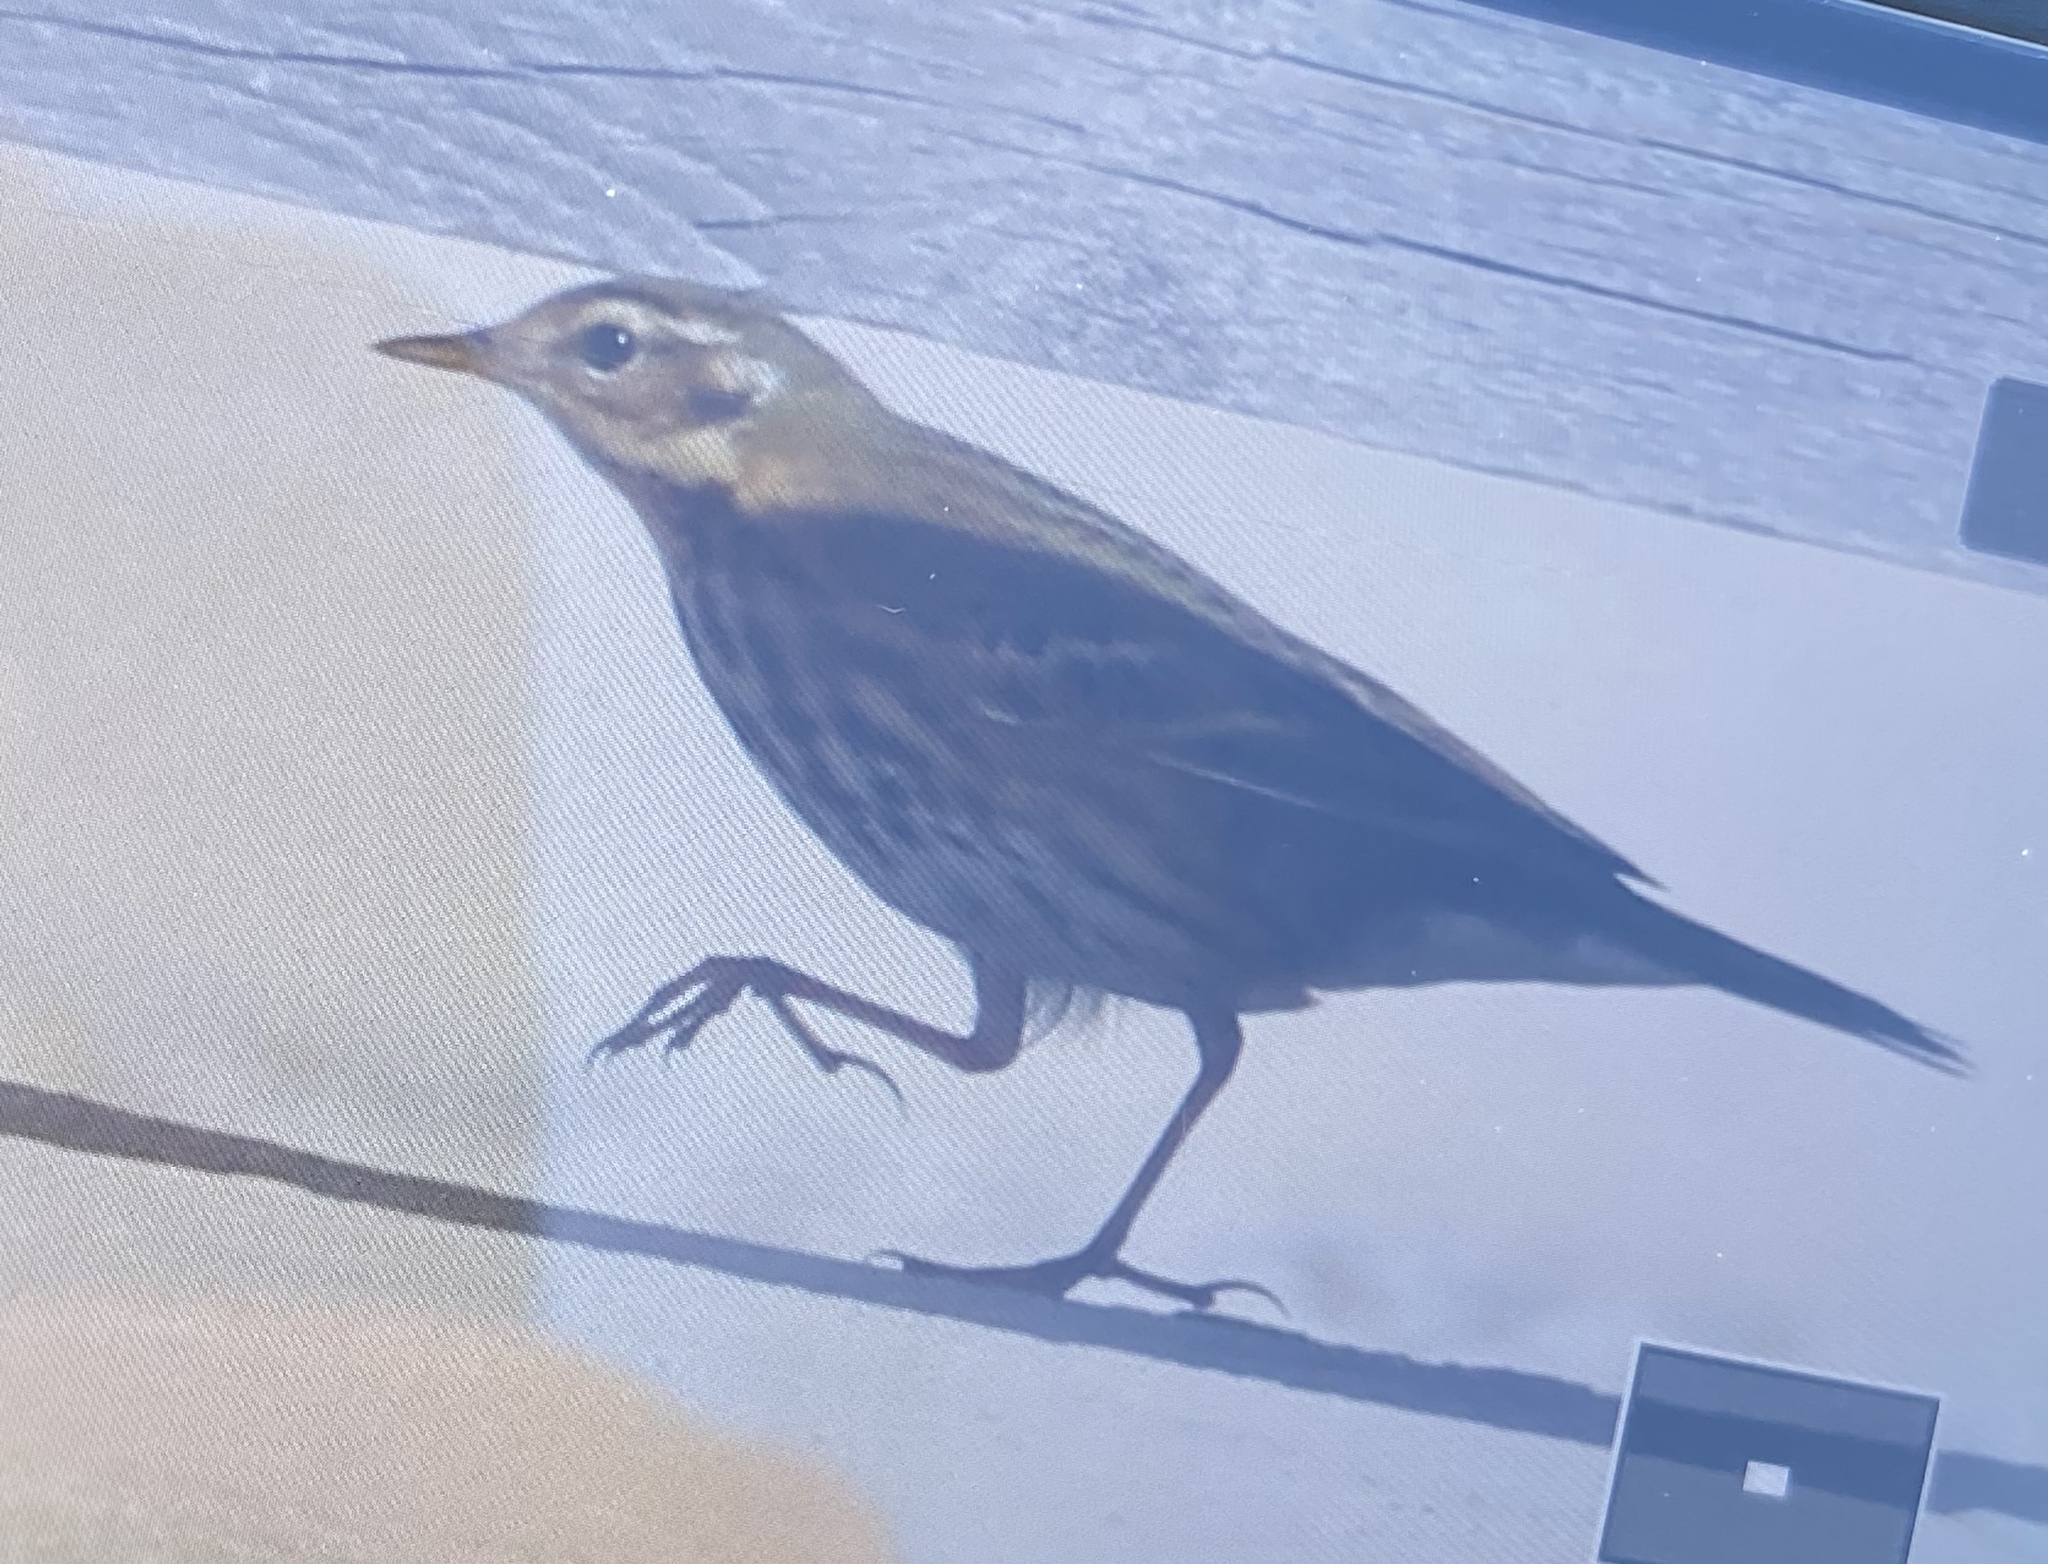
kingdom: Animalia
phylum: Chordata
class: Aves
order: Passeriformes
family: Motacillidae
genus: Anthus
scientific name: Anthus hodgsoni
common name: Olive-backed pipit
